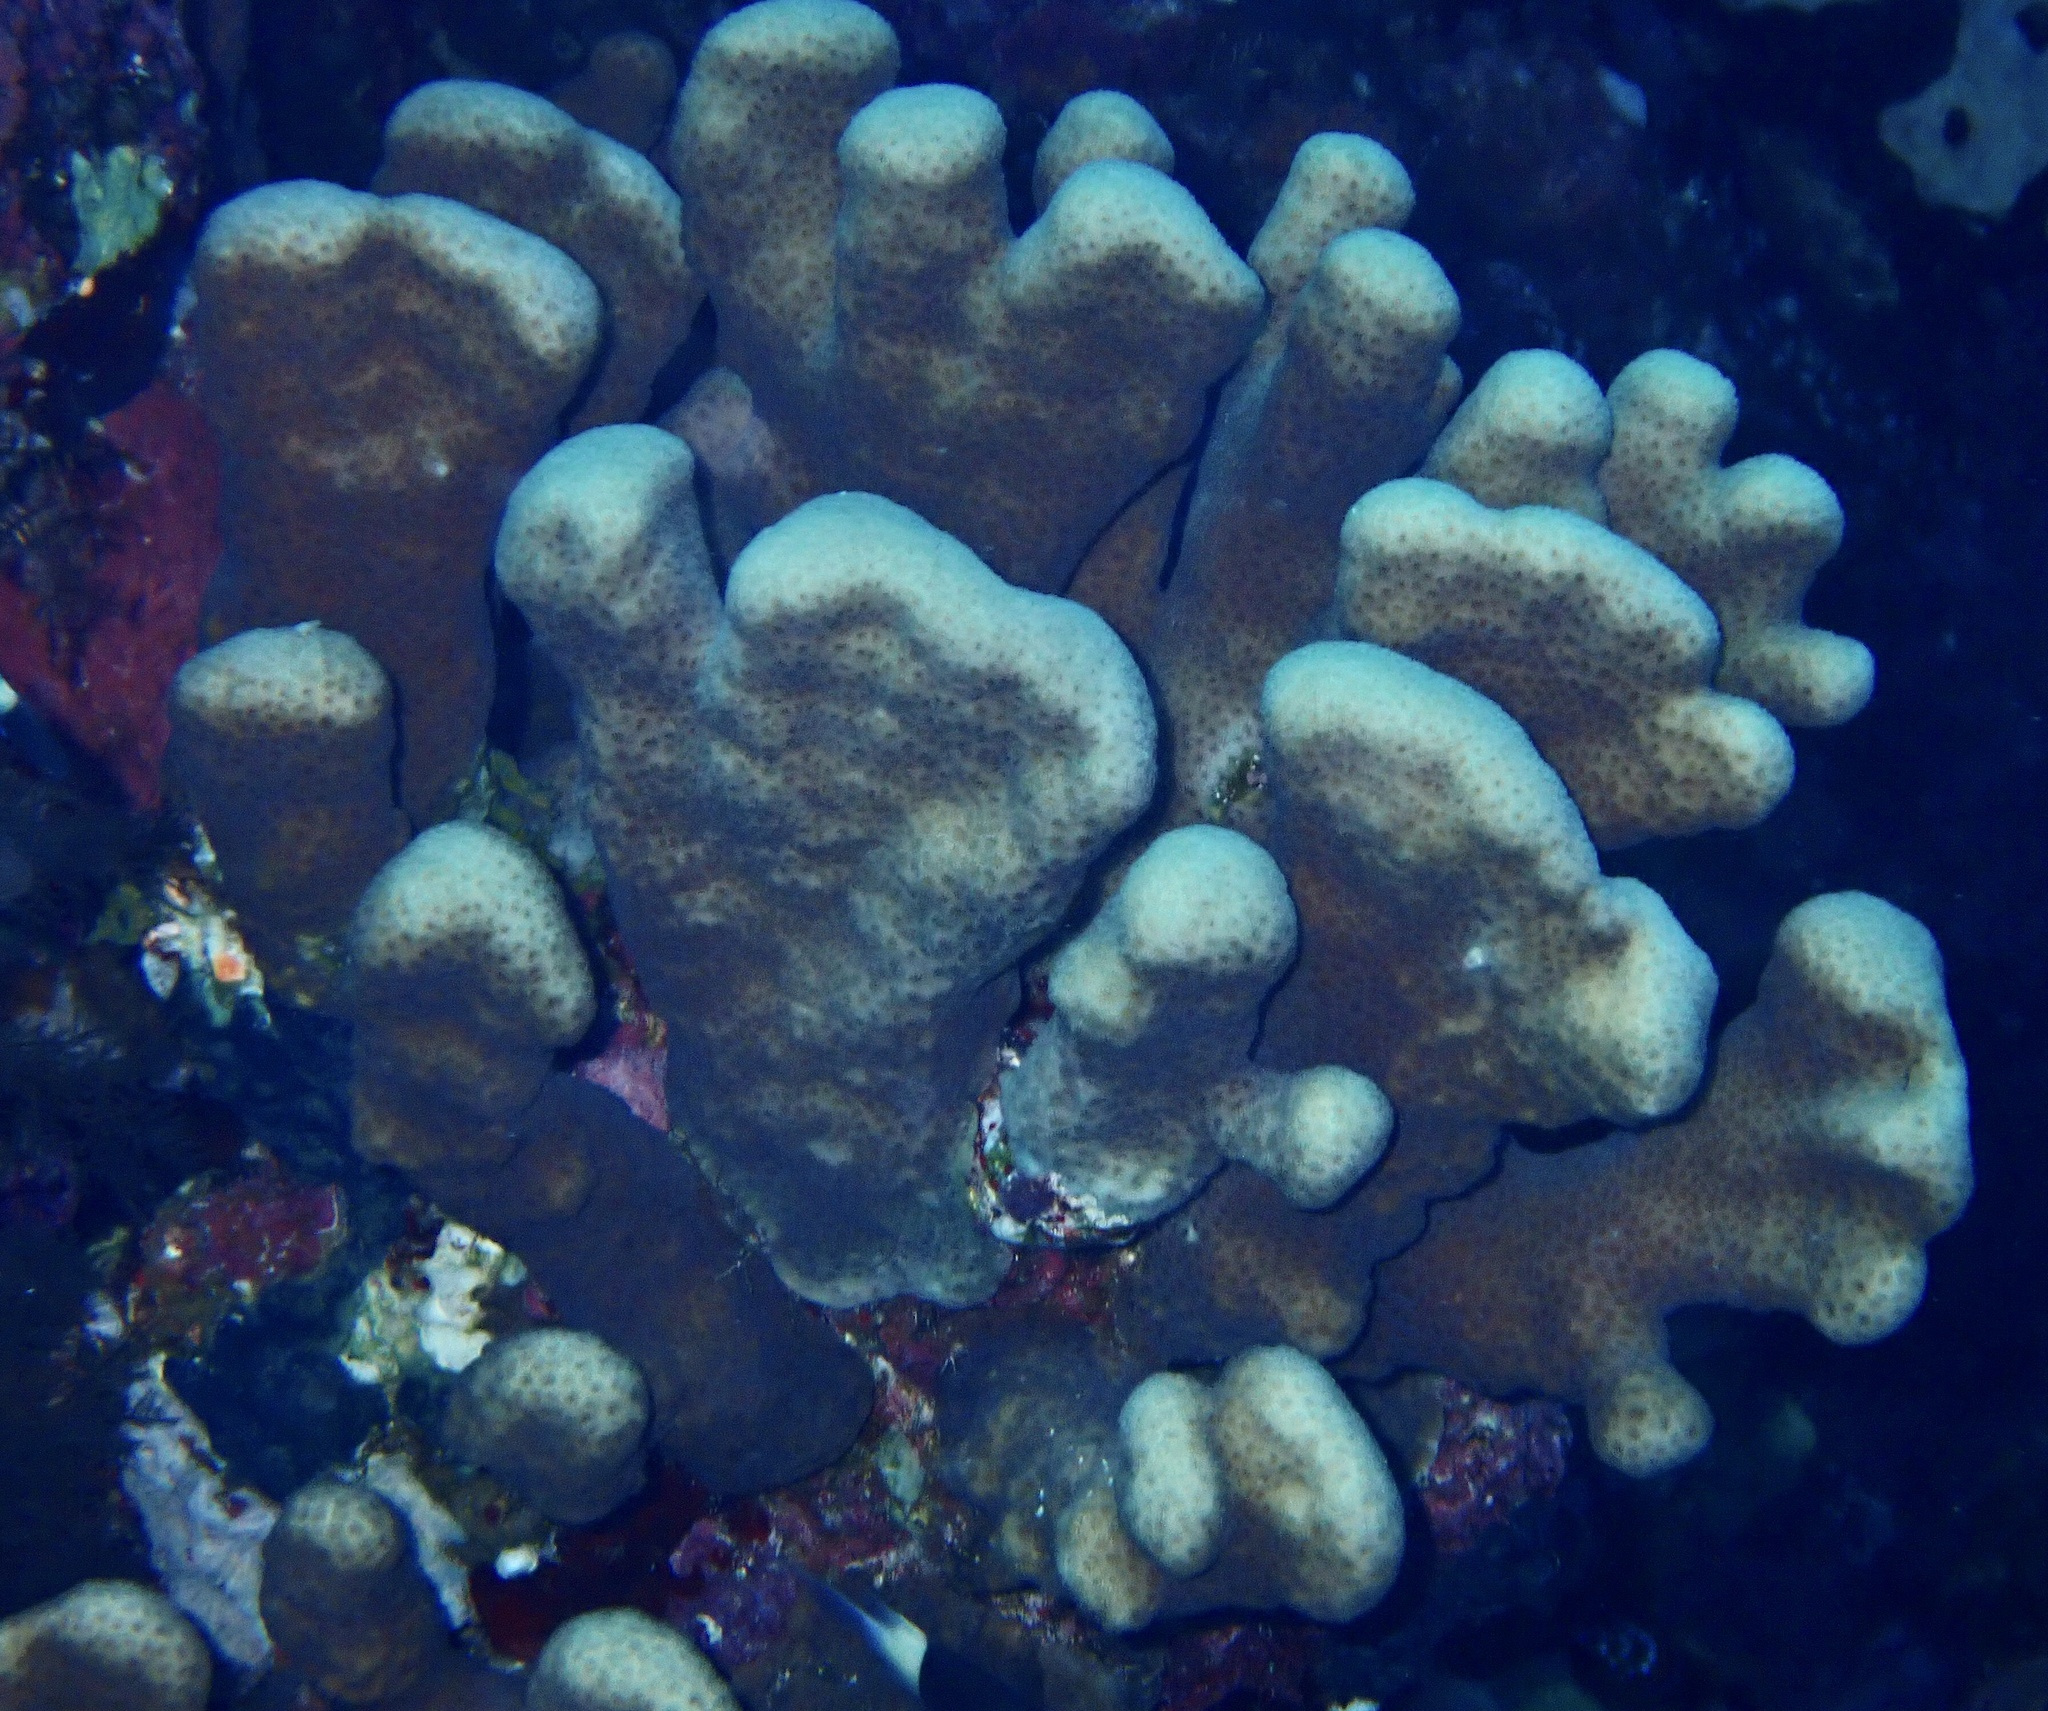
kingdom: Animalia
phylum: Cnidaria
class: Anthozoa
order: Scleractinia
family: Merulinidae
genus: Goniastrea
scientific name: Goniastrea stelligera
